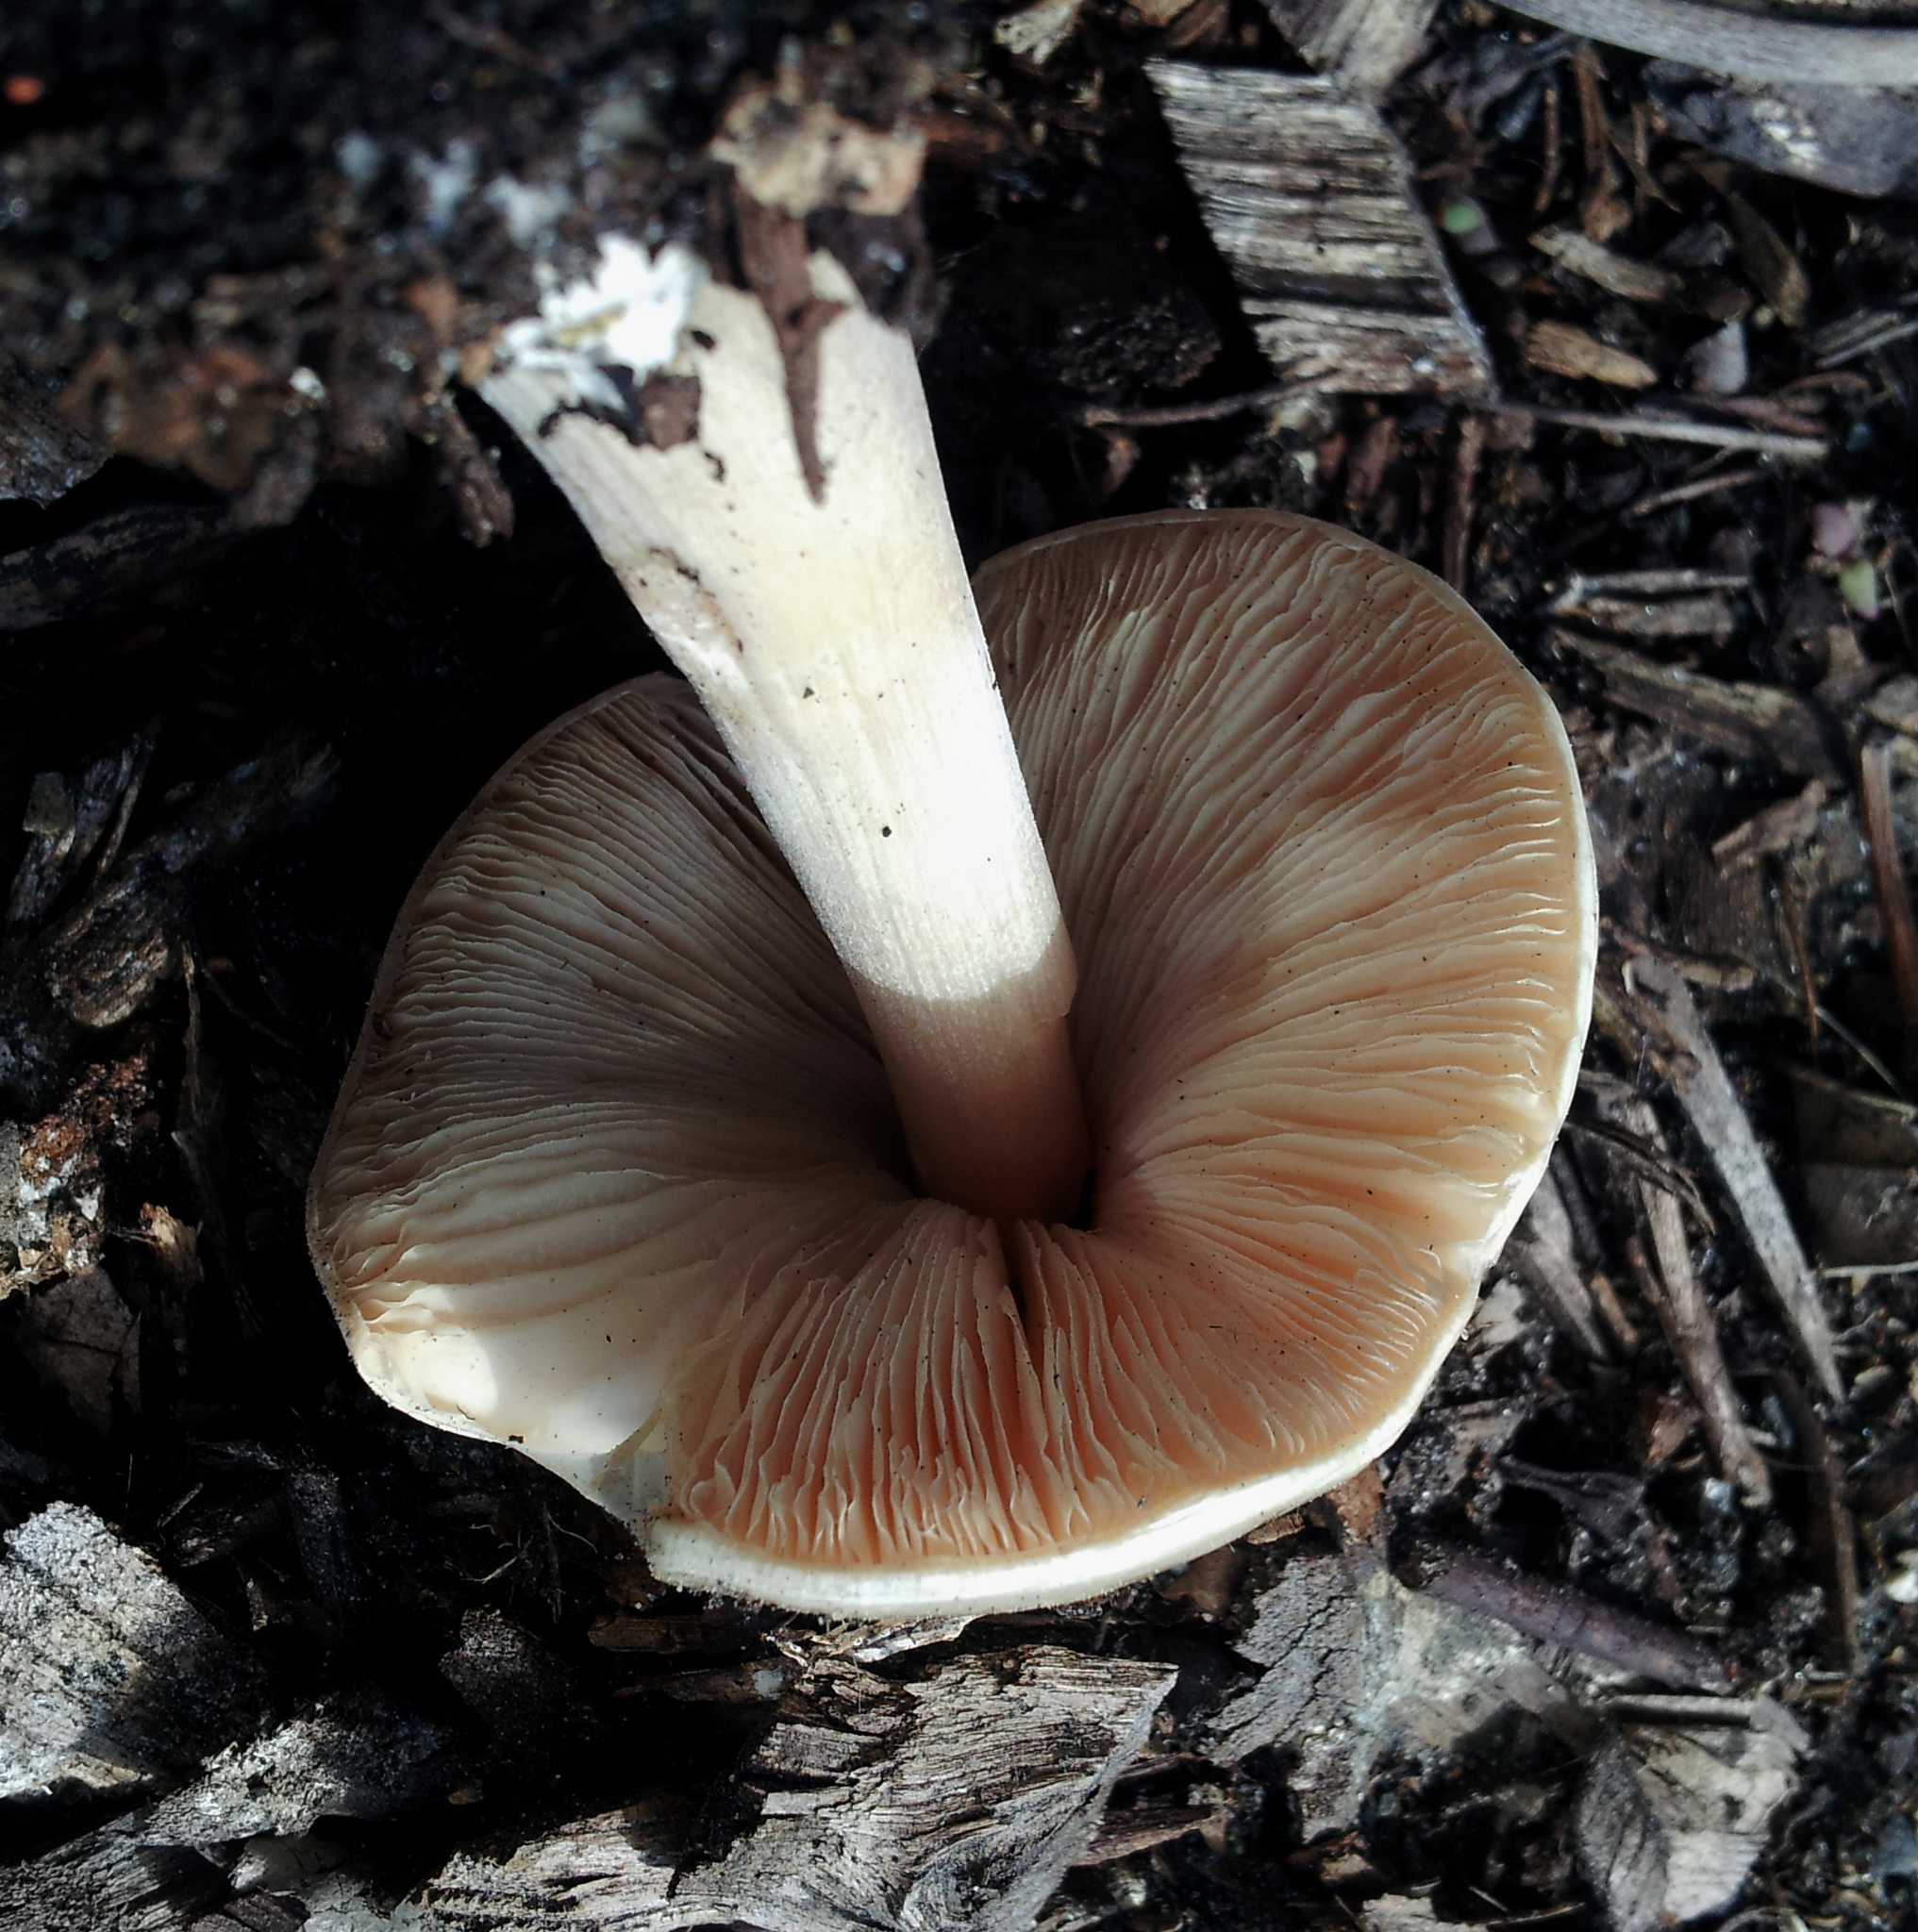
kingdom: Fungi
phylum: Basidiomycota
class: Agaricomycetes
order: Agaricales
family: Pluteaceae
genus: Volvopluteus
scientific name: Volvopluteus gloiocephalus
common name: Stubble rosegill
